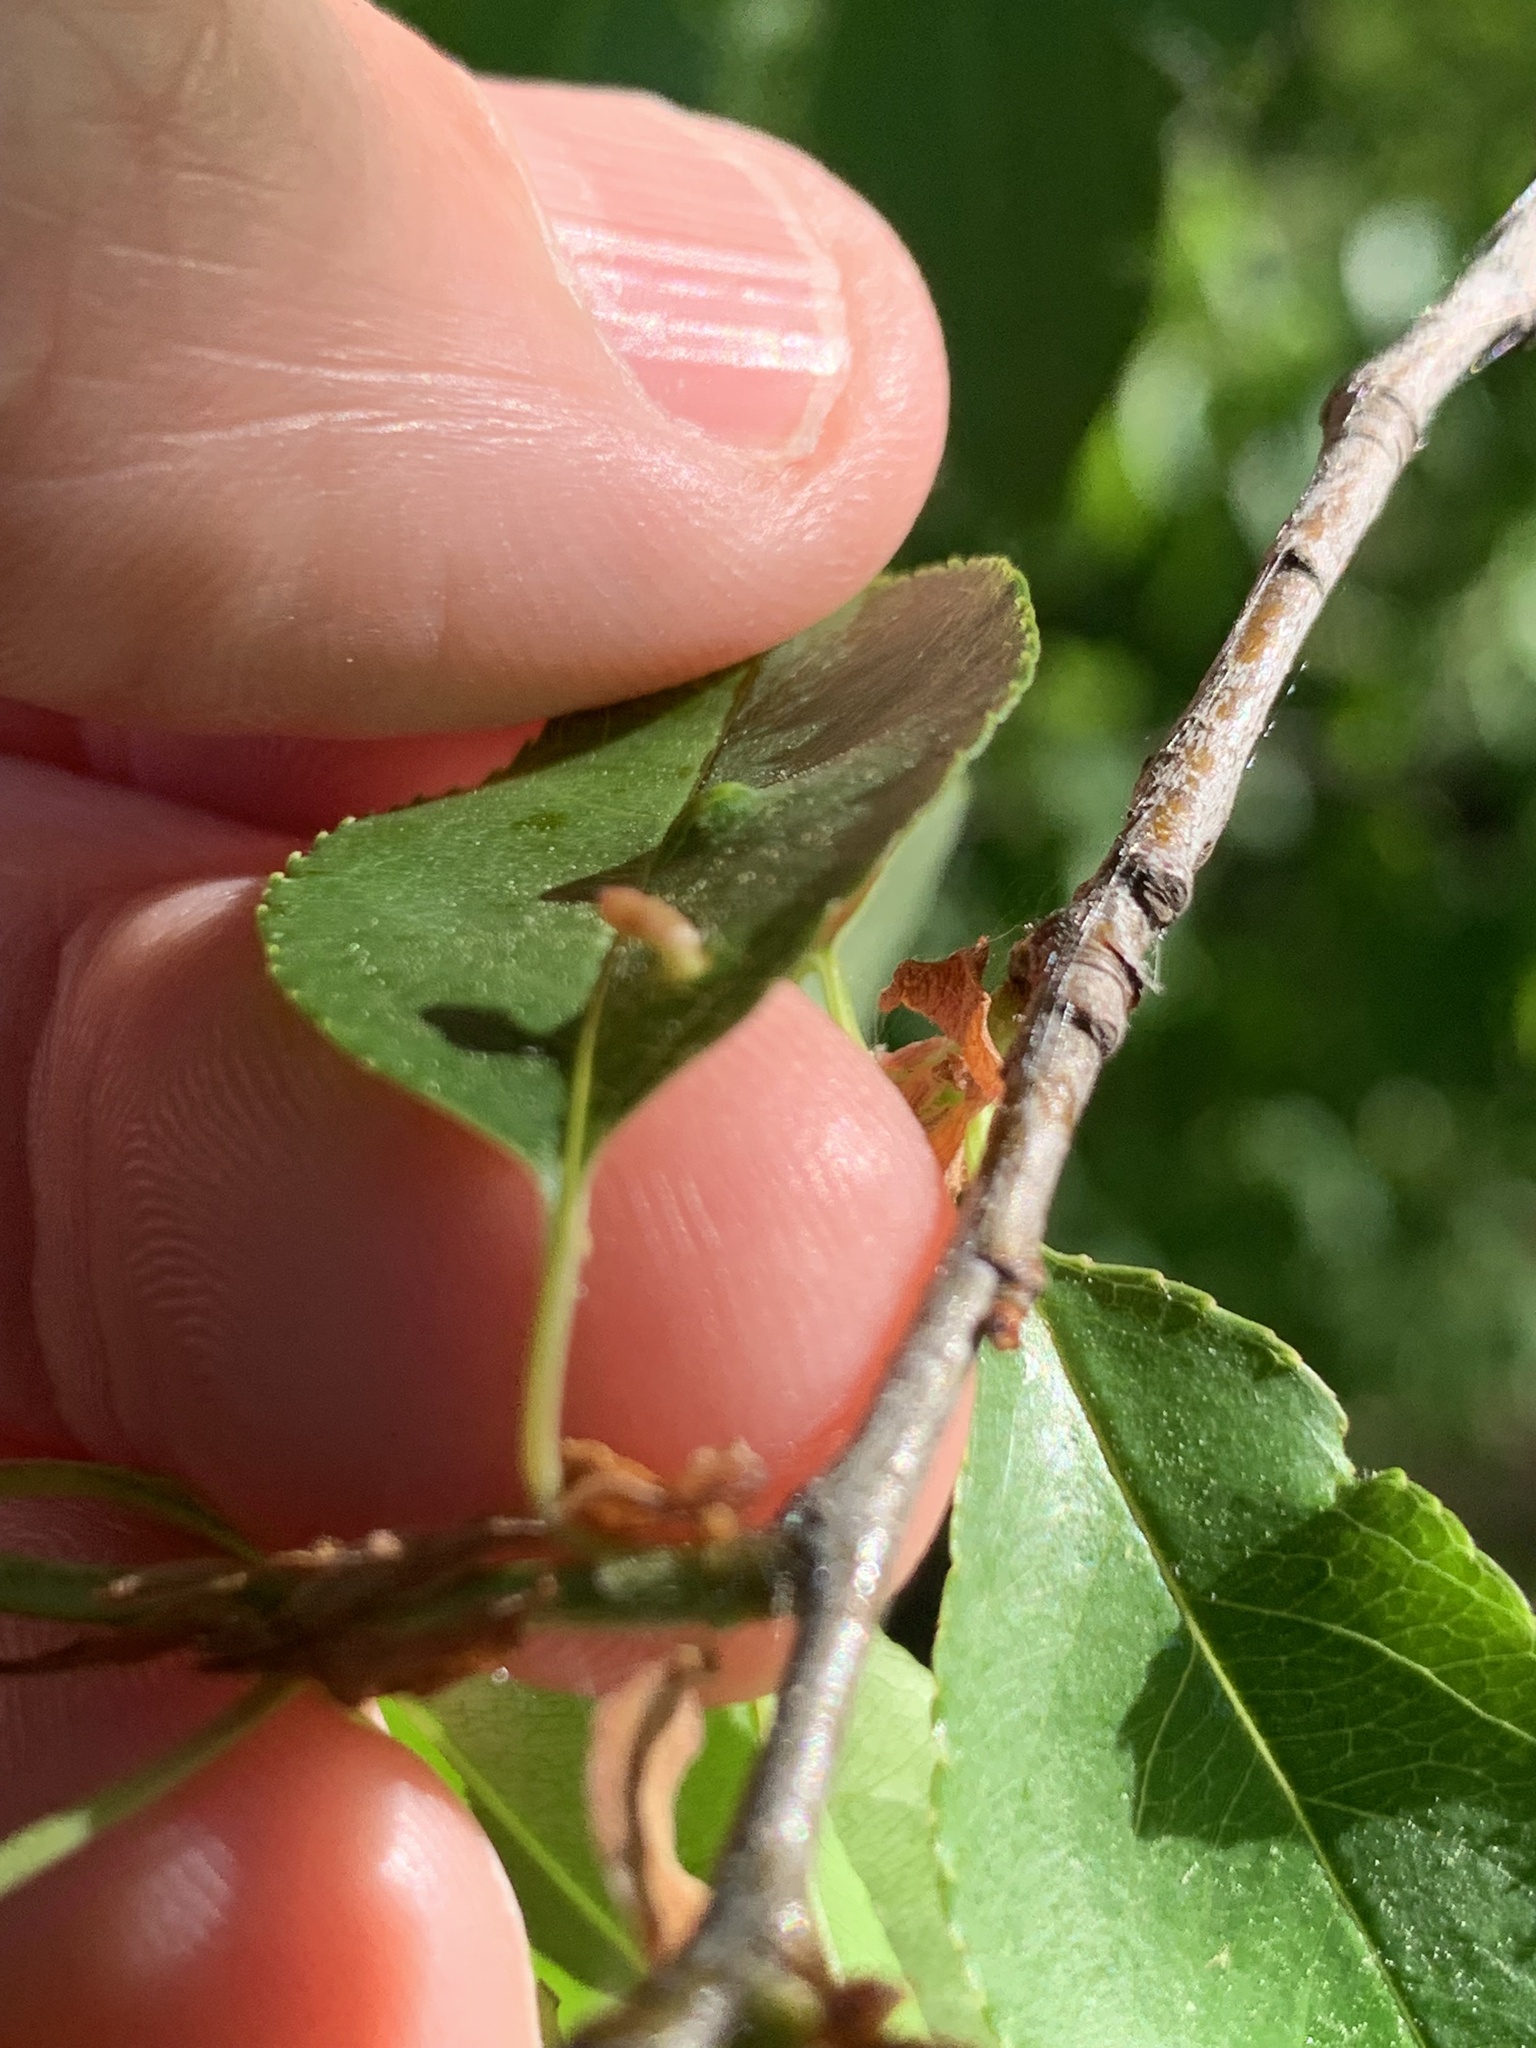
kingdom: Animalia
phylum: Arthropoda
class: Arachnida
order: Trombidiformes
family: Eriophyidae
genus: Eriophyes
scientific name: Eriophyes
